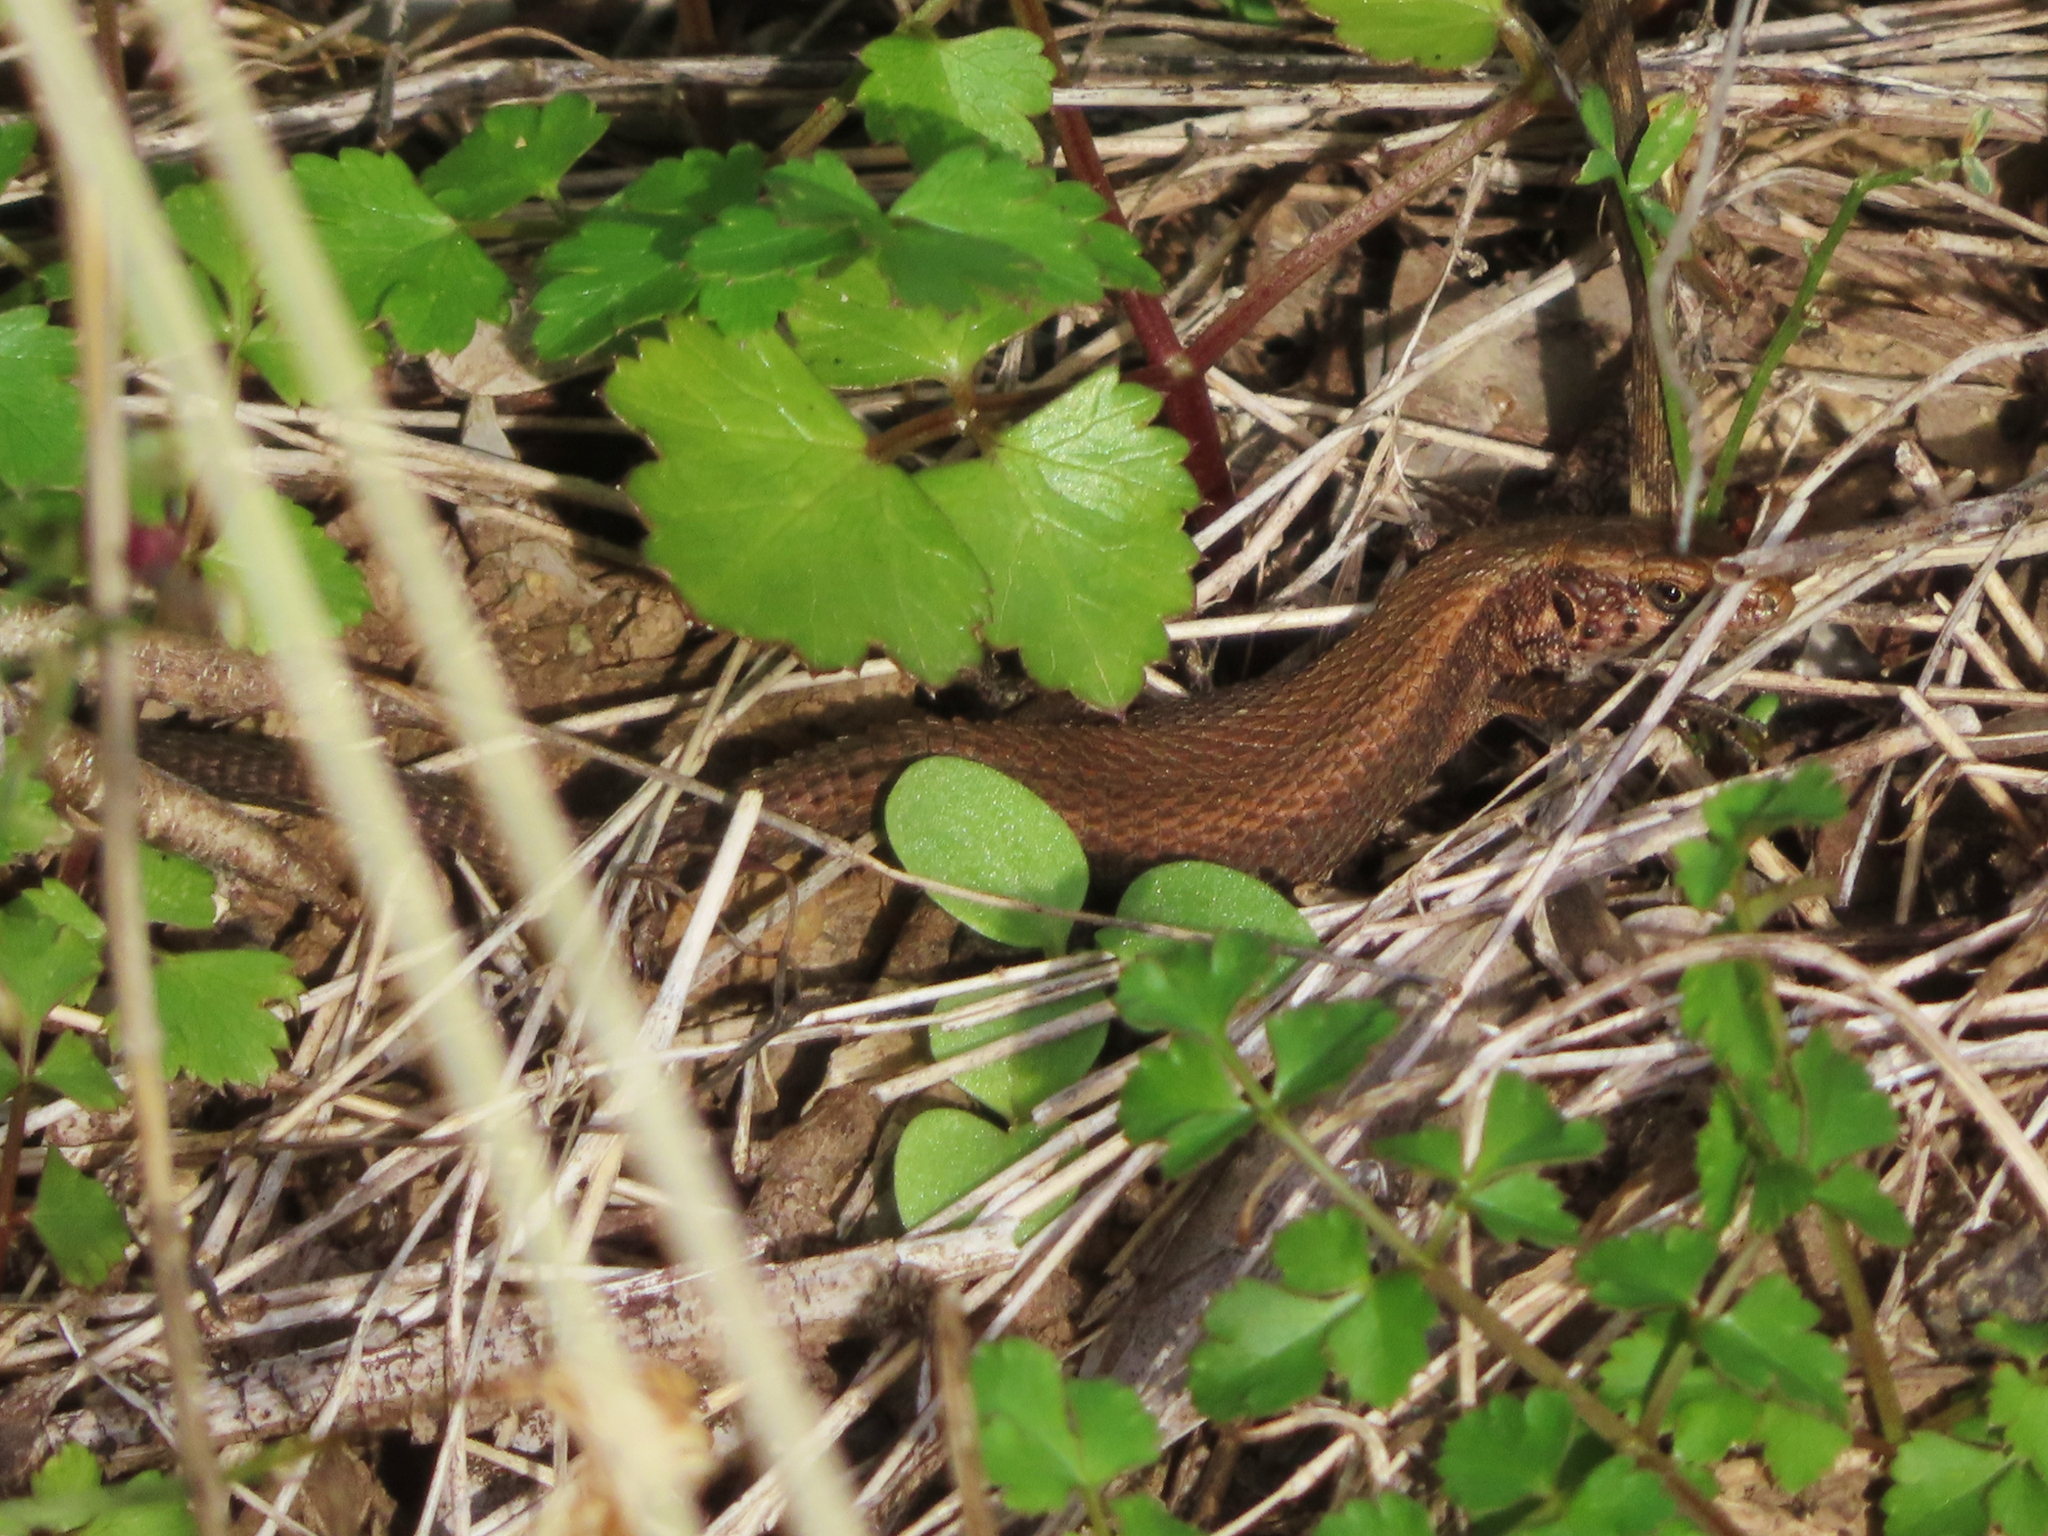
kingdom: Animalia
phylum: Chordata
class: Squamata
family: Lacertidae
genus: Algyroides
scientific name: Algyroides moreoticus
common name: Greek algyroides
